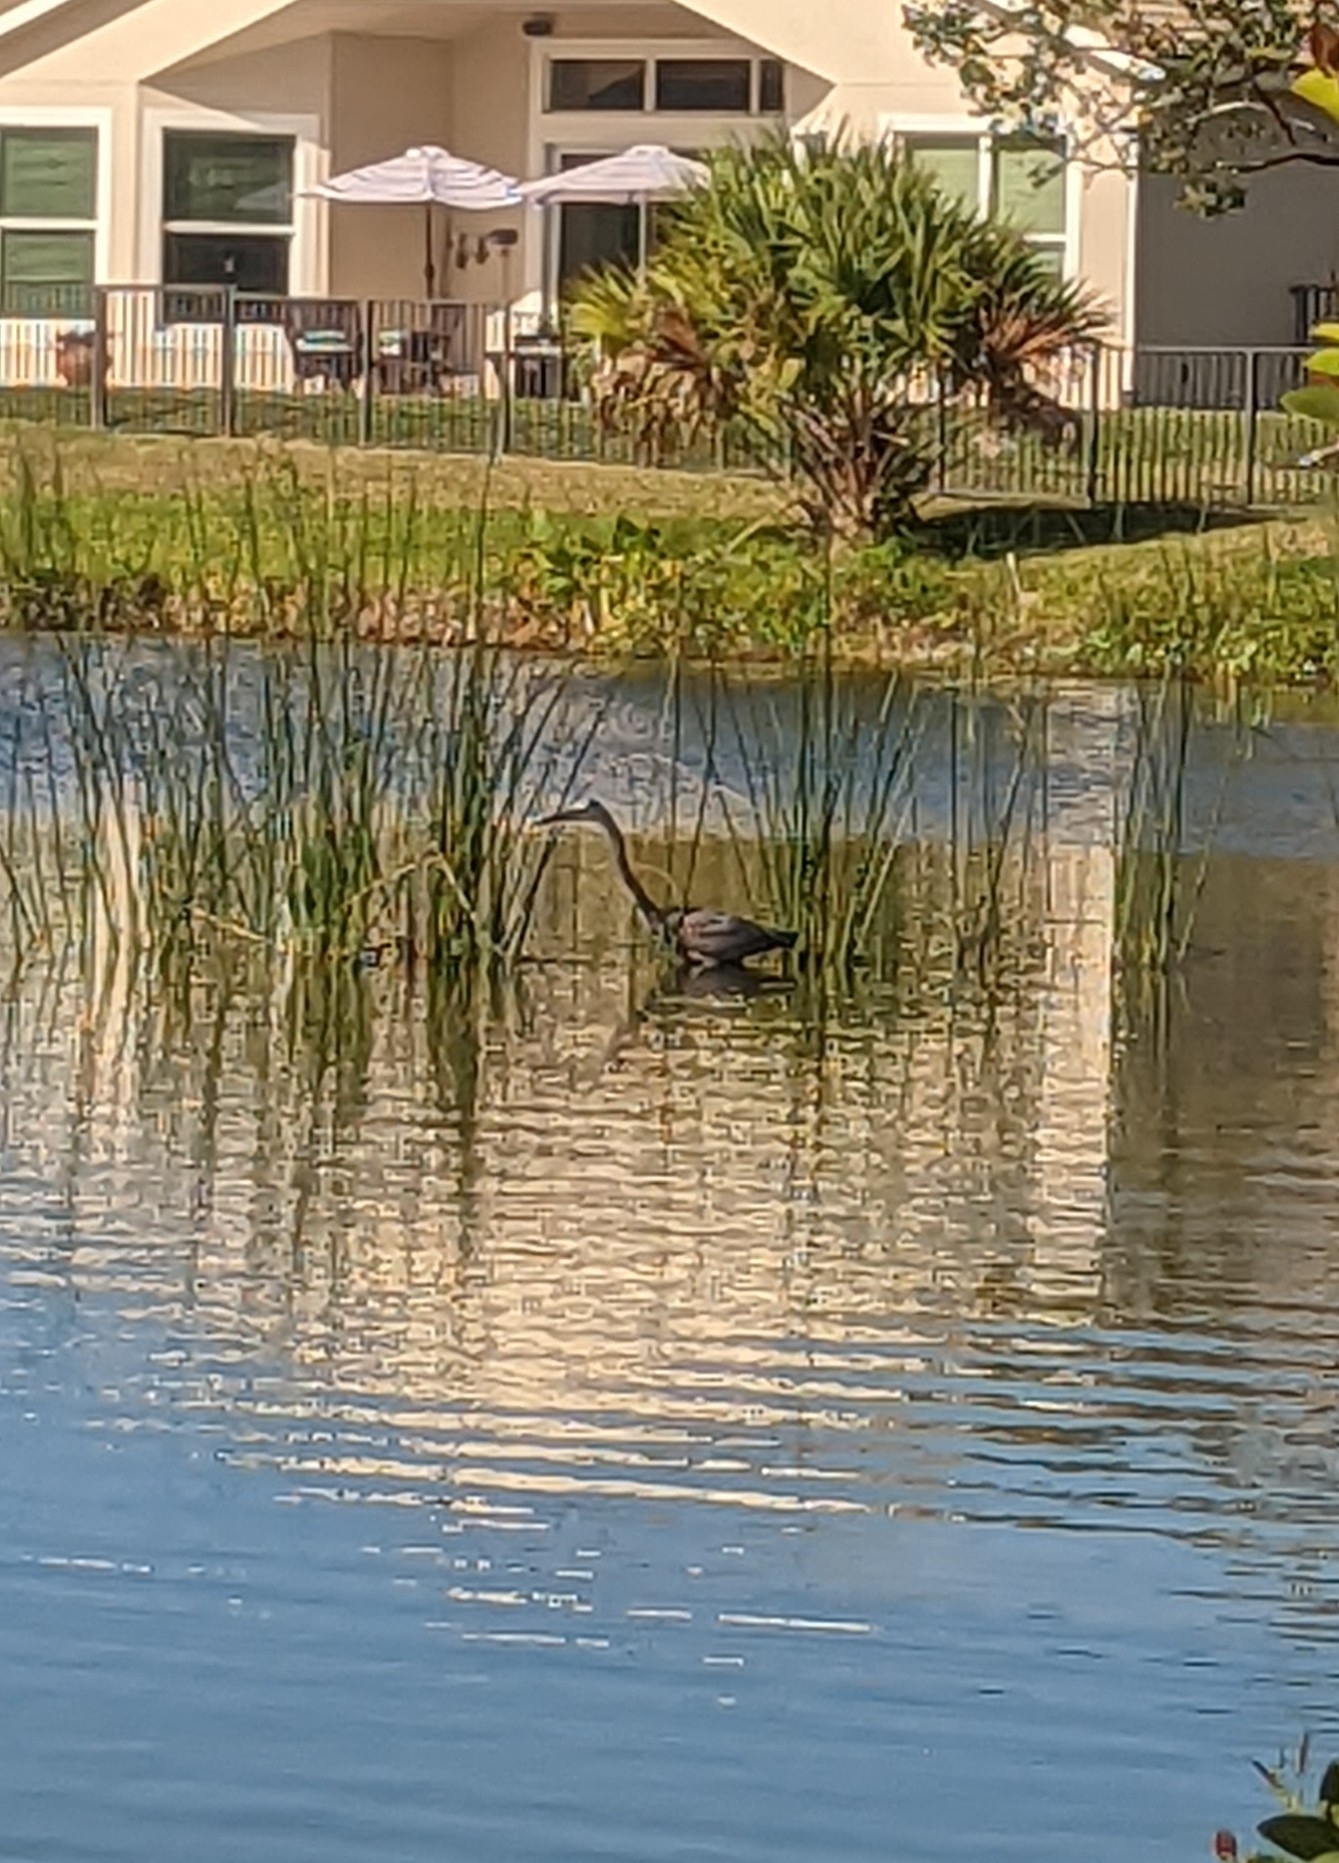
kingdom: Animalia
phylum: Chordata
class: Aves
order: Pelecaniformes
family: Ardeidae
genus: Ardea
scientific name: Ardea herodias
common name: Great blue heron
